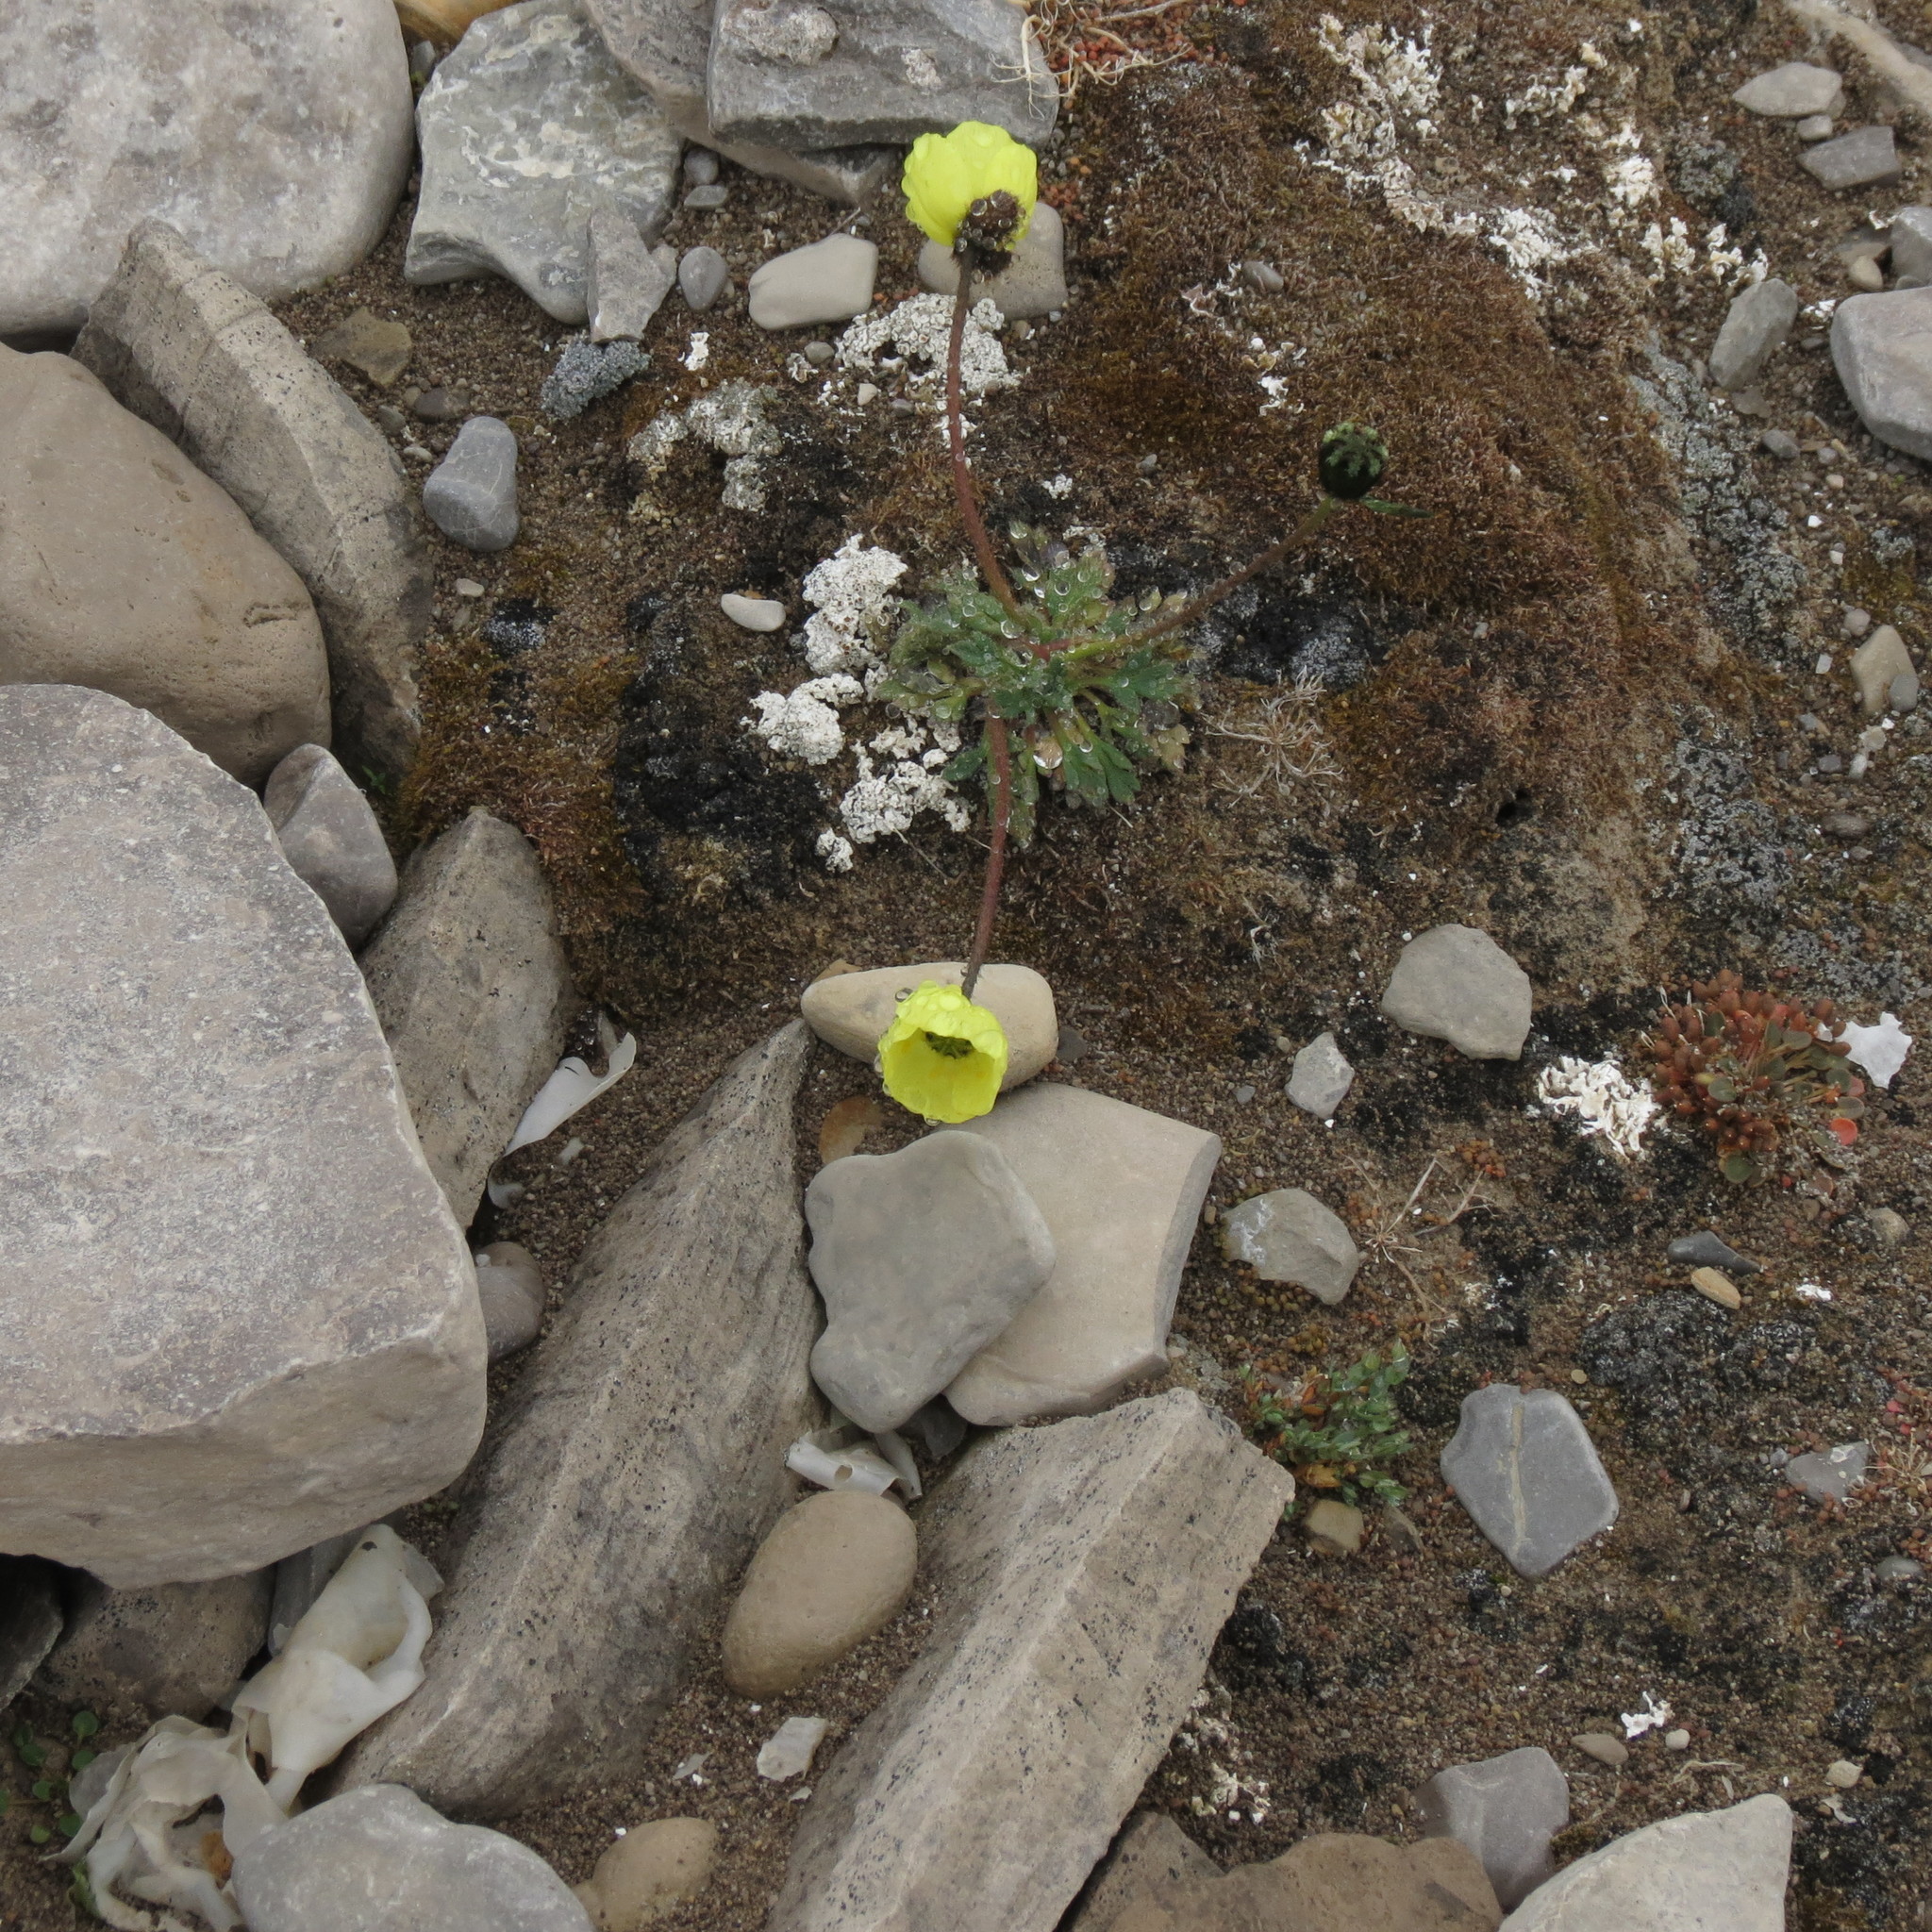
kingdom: Plantae
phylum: Tracheophyta
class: Magnoliopsida
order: Ranunculales
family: Papaveraceae
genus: Papaver
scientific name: Papaver radicatum
